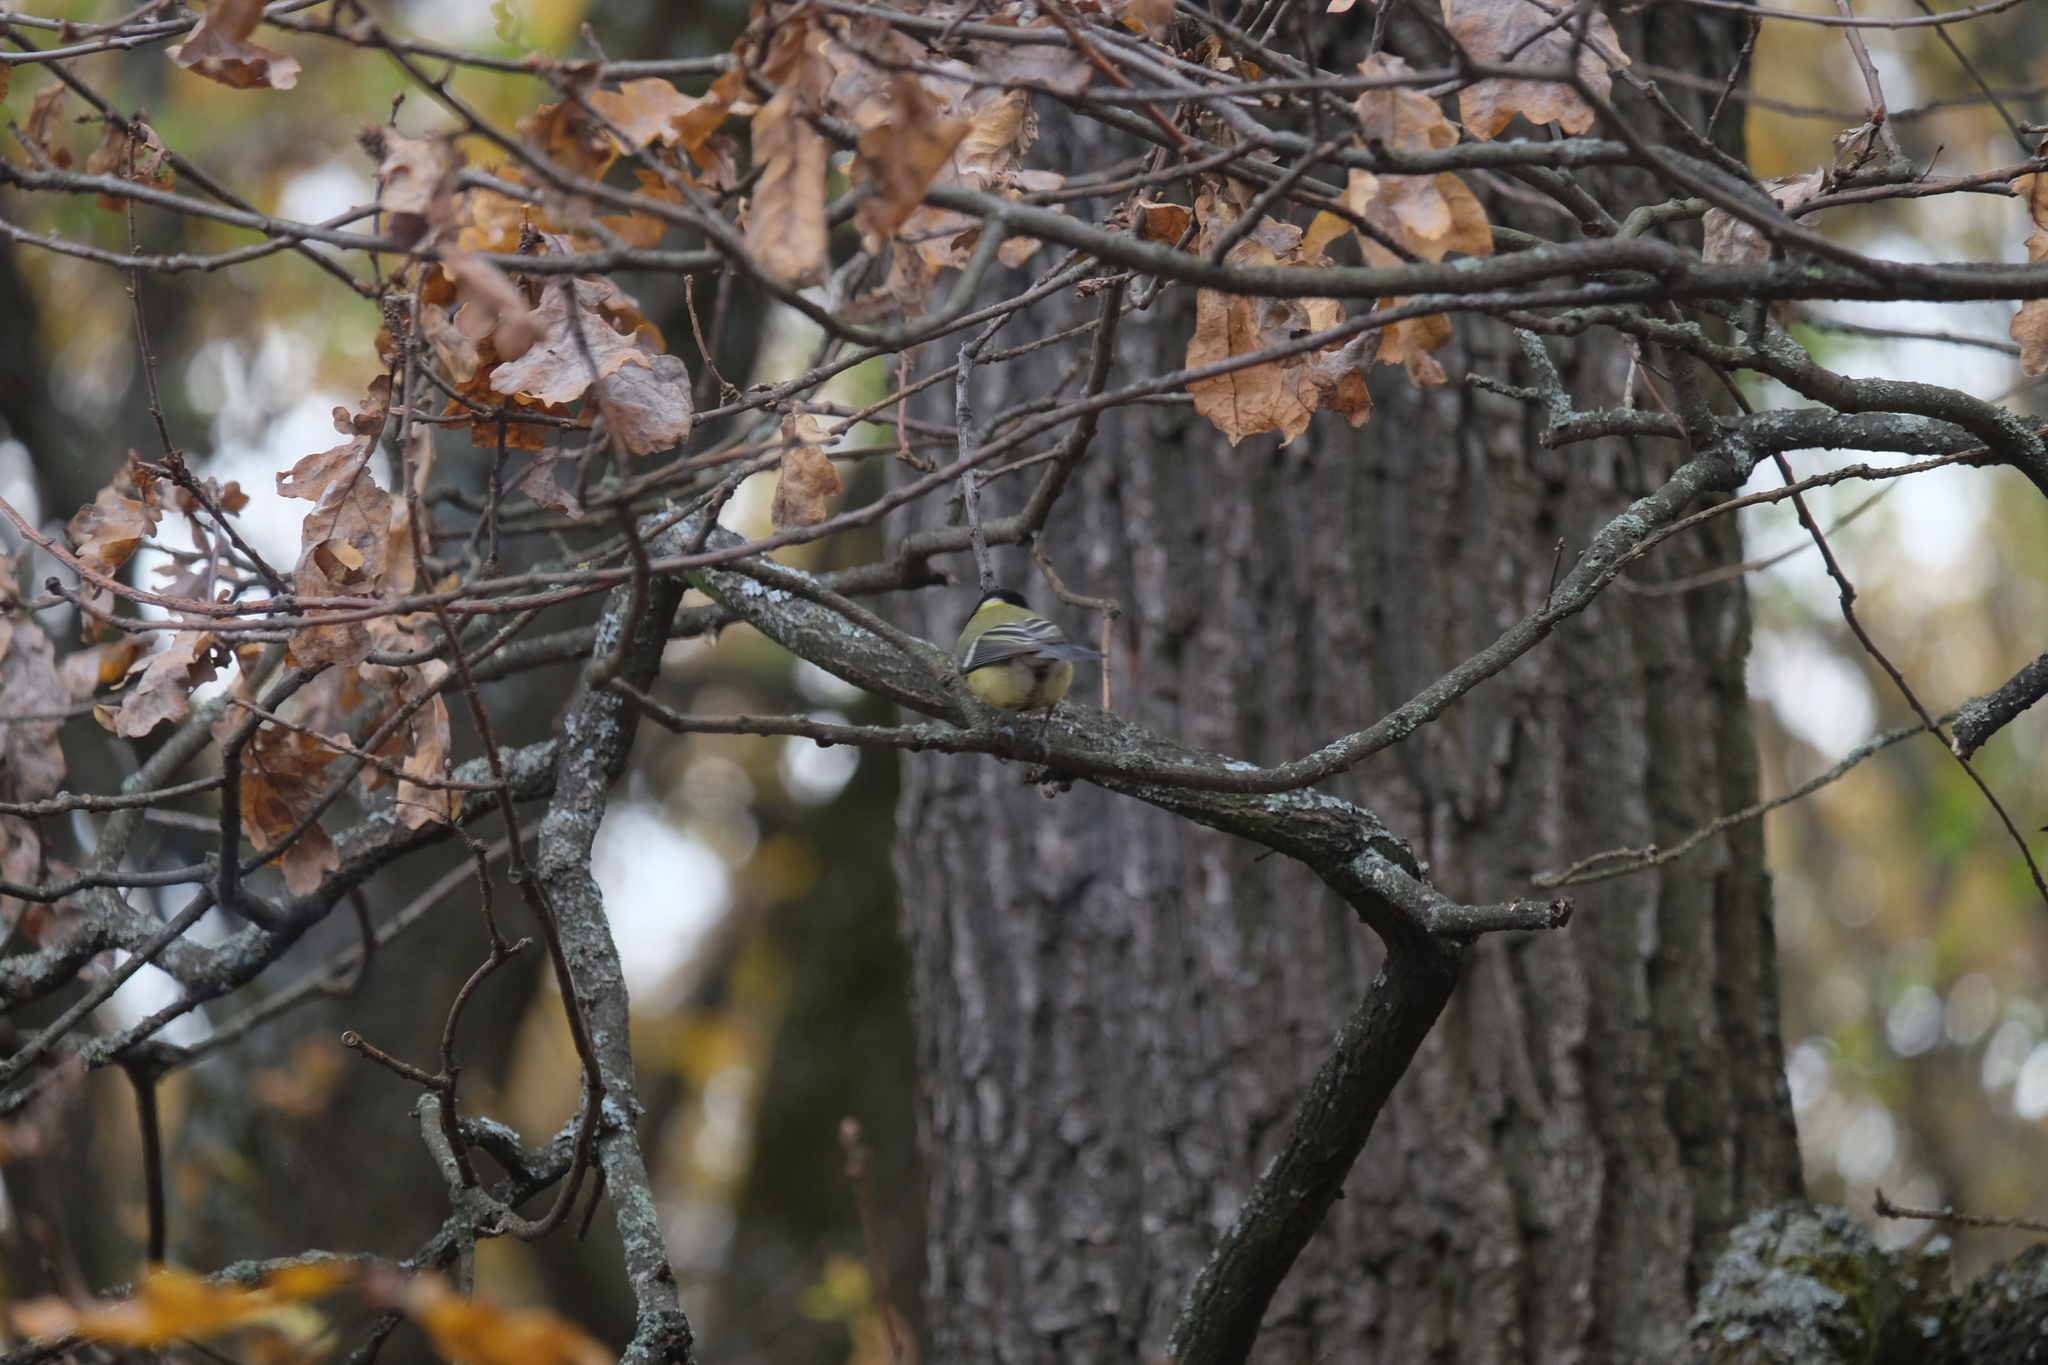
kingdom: Animalia
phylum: Chordata
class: Aves
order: Passeriformes
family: Paridae
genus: Parus
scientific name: Parus major
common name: Great tit
